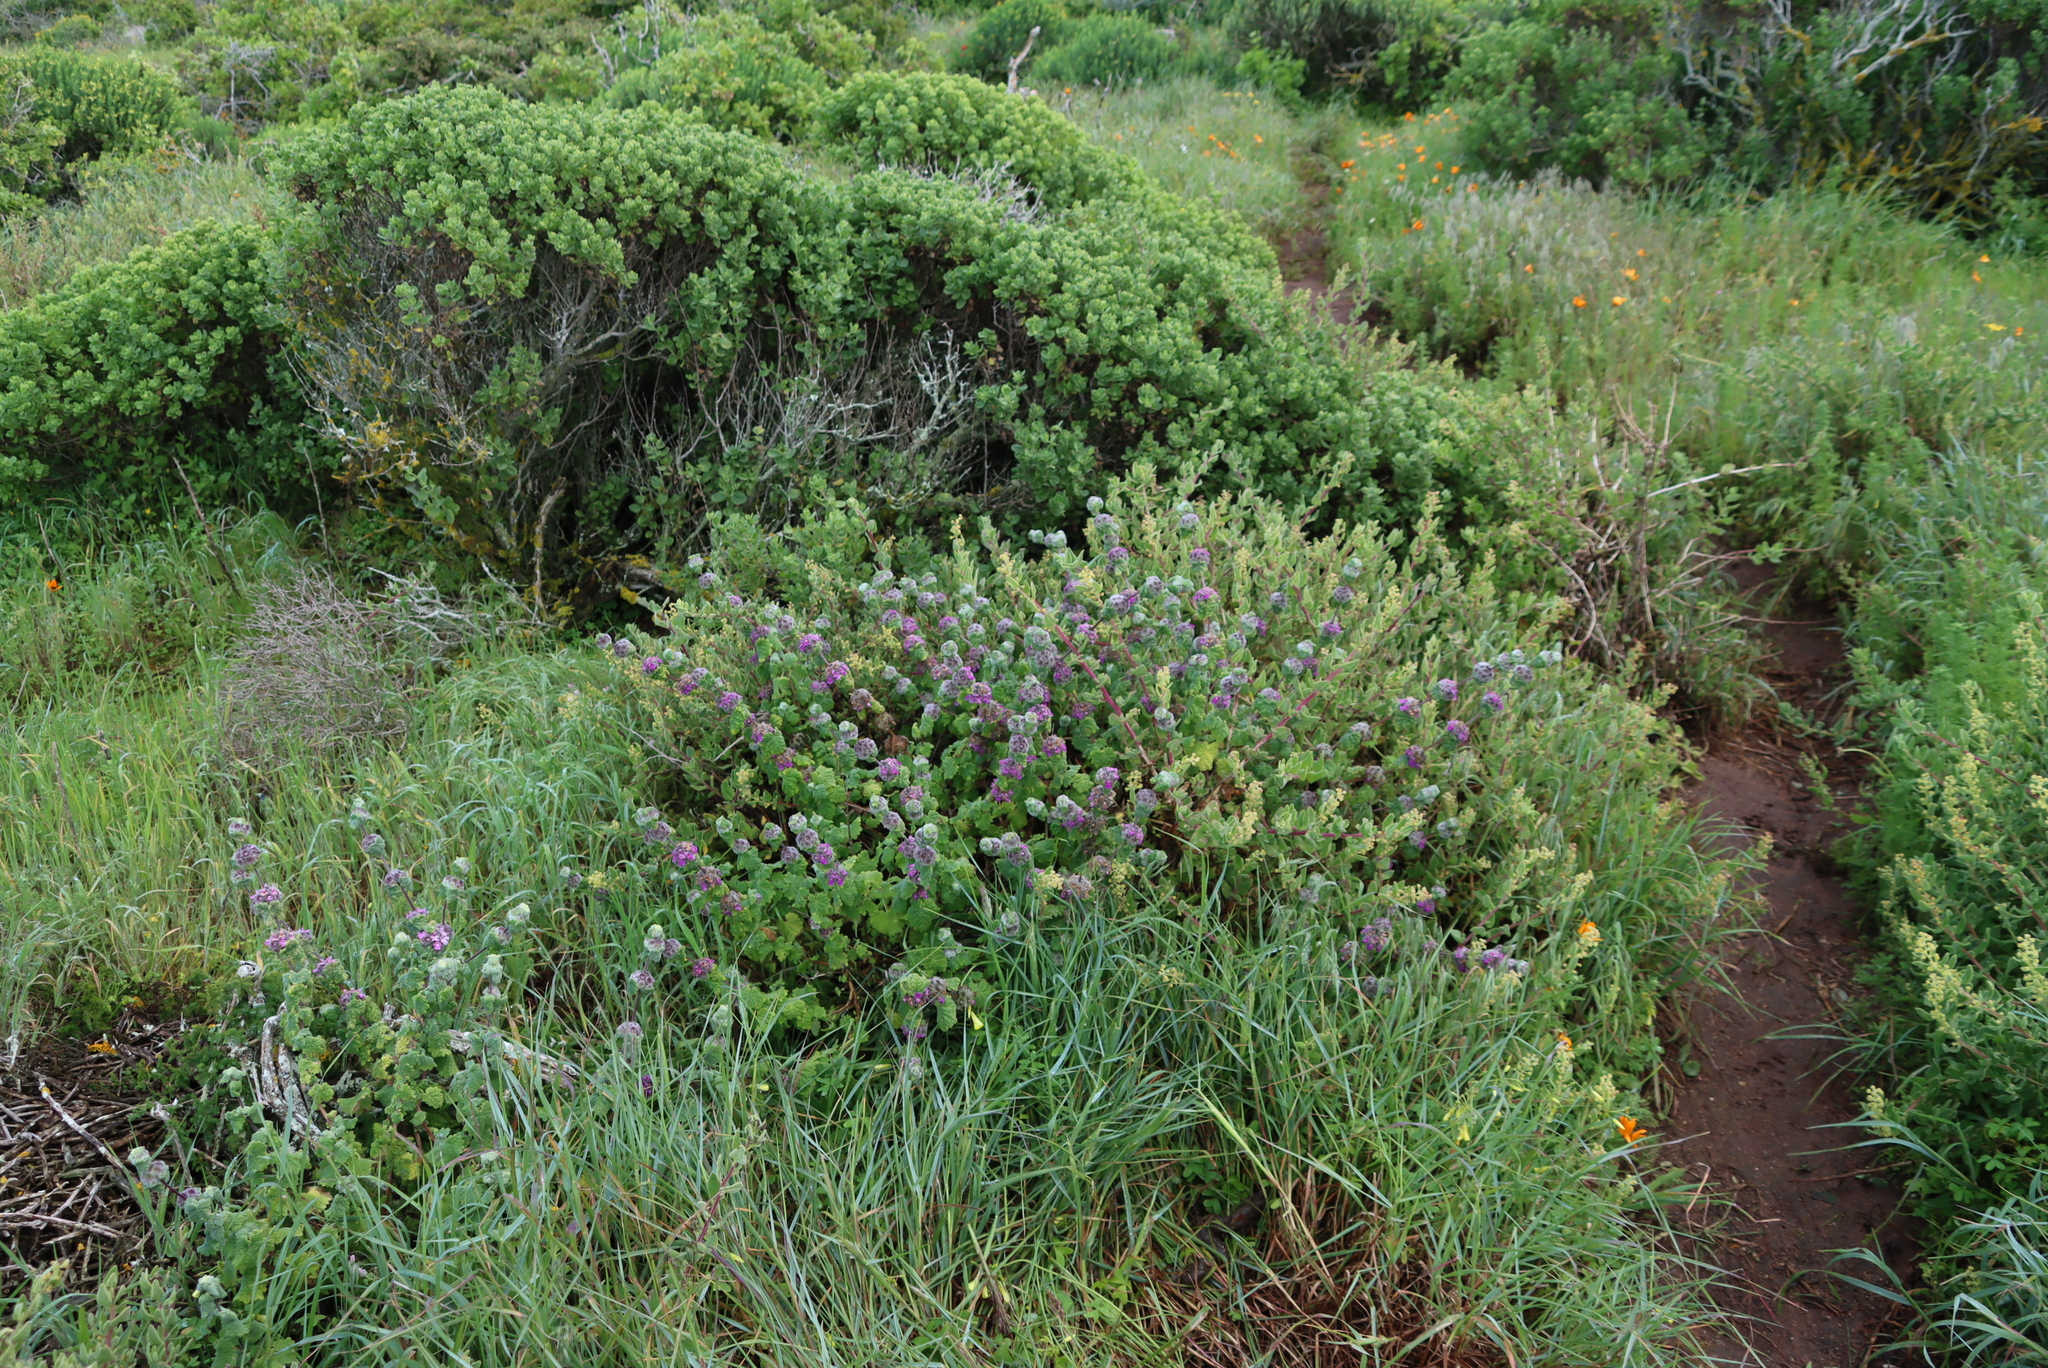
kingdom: Plantae
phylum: Tracheophyta
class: Magnoliopsida
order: Lamiales
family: Lamiaceae
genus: Pseudodictamnus
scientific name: Pseudodictamnus africanus
